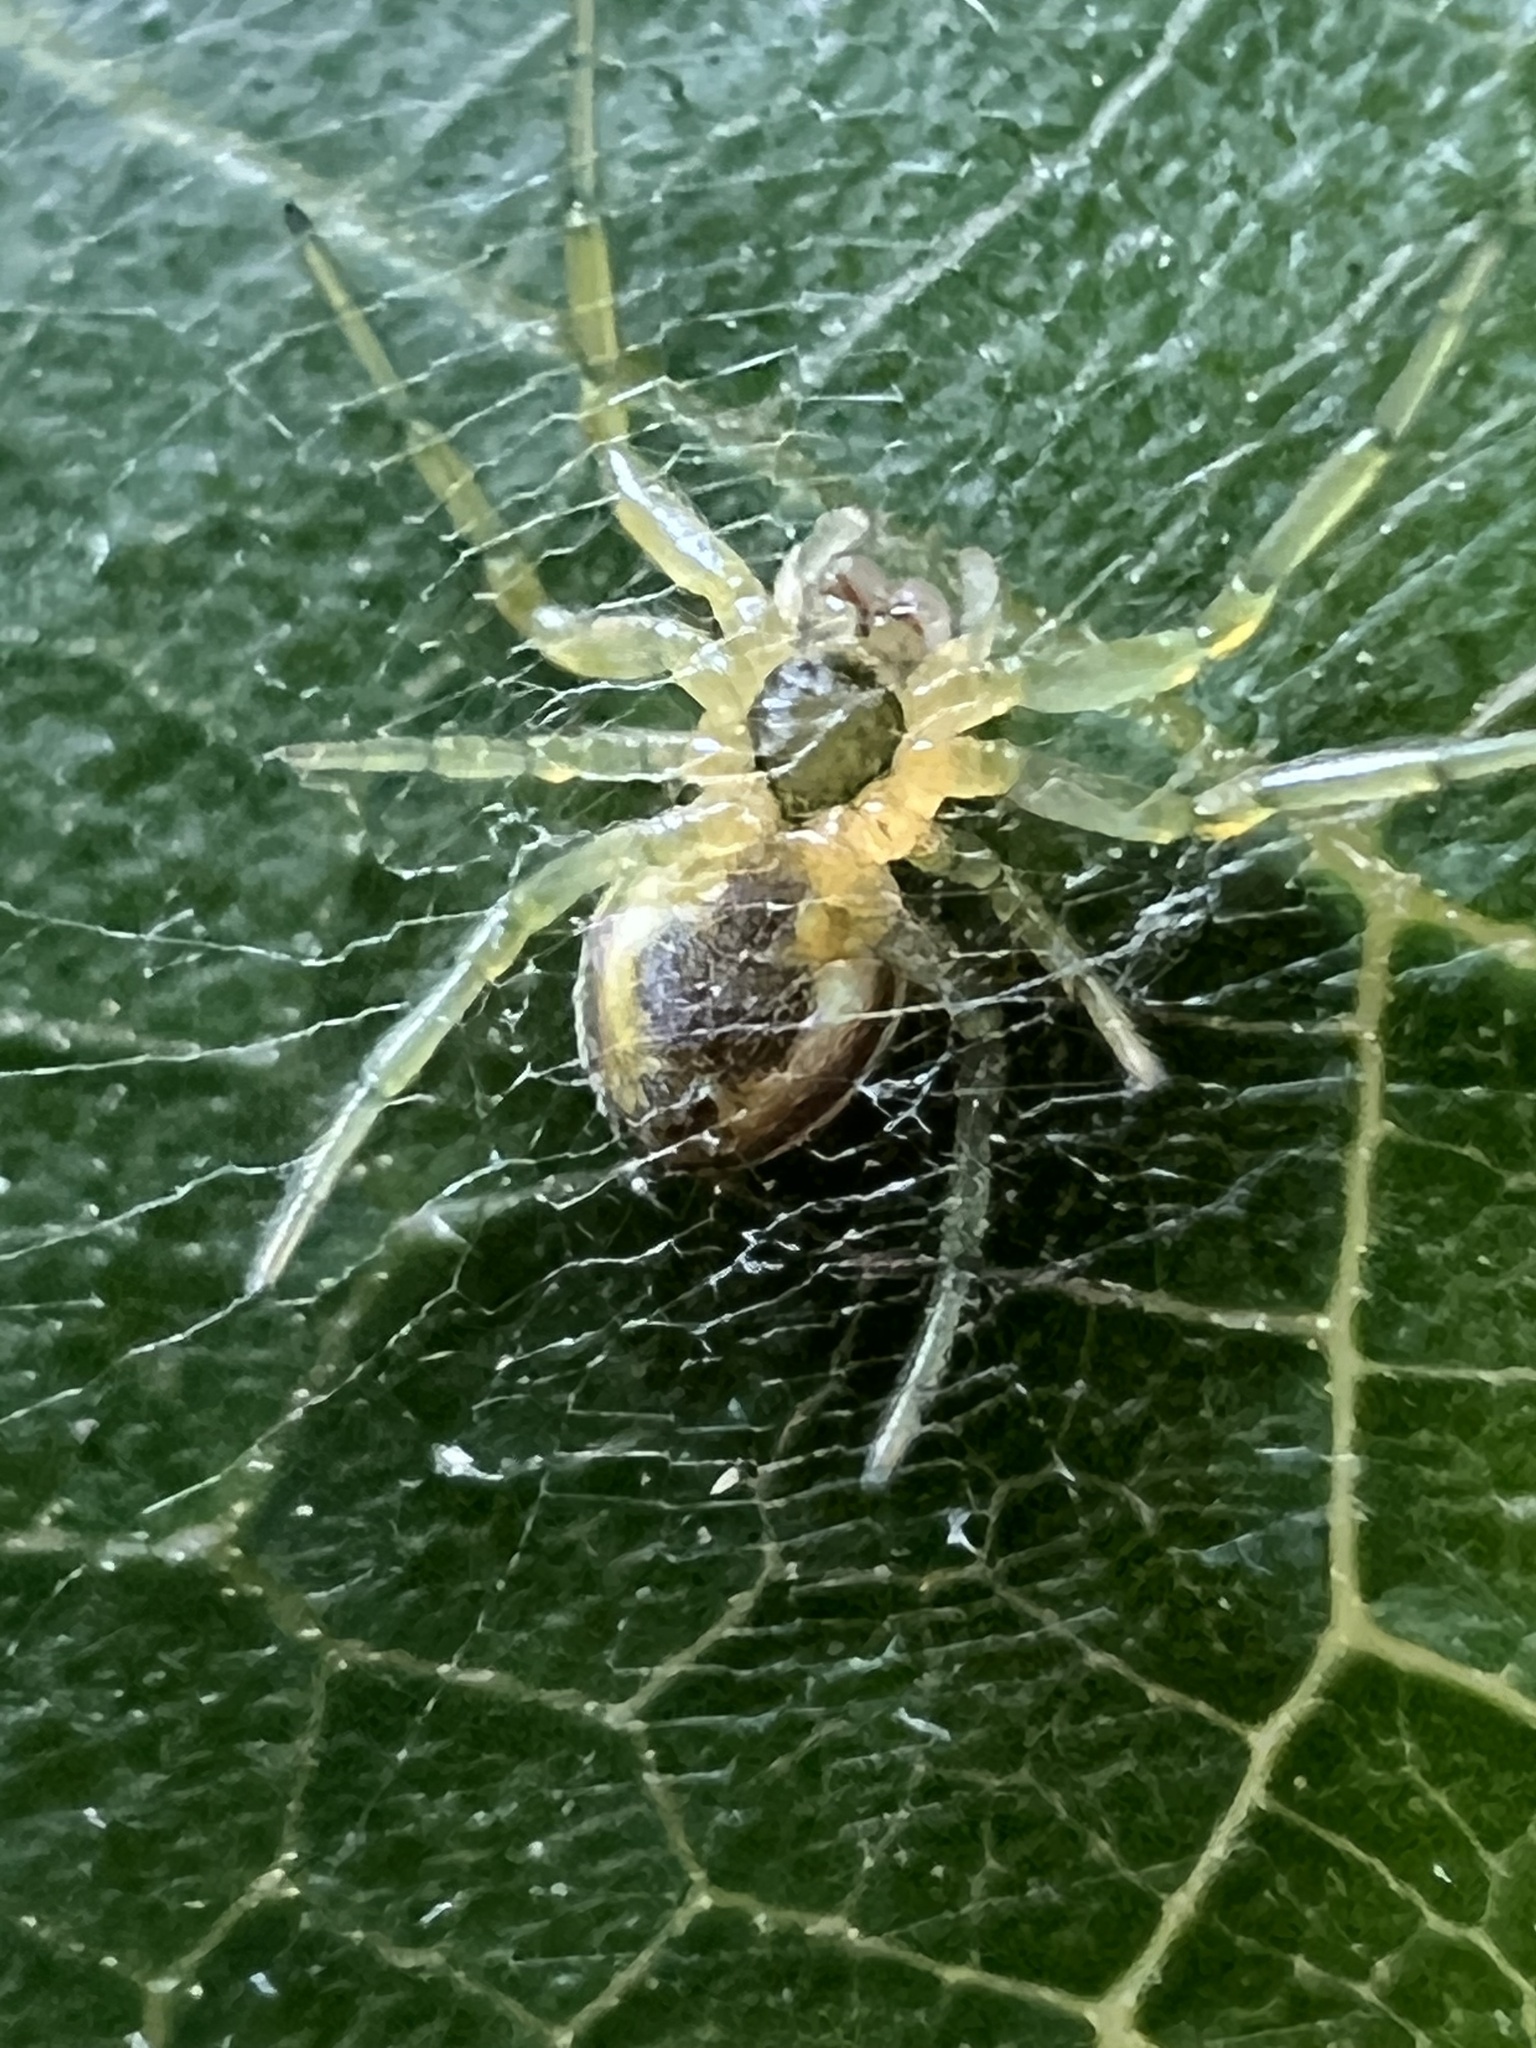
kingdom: Animalia
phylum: Arthropoda
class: Arachnida
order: Araneae
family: Araneidae
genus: Araniella
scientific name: Araniella displicata
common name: Sixspotted orb weaver
